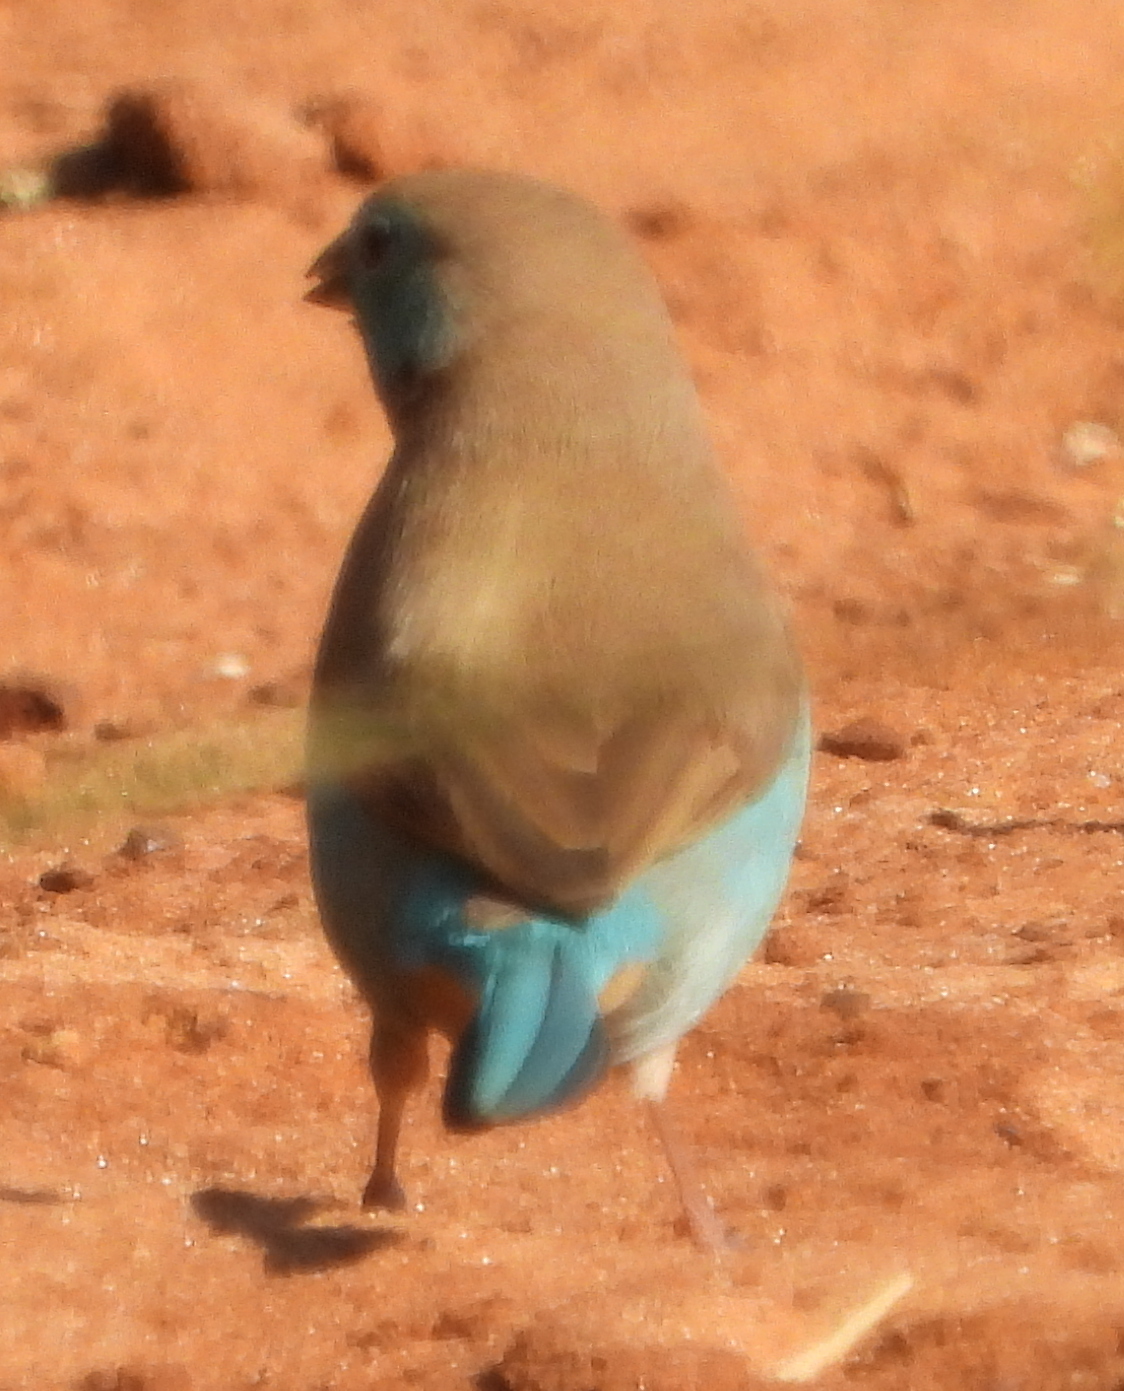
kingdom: Animalia
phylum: Chordata
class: Aves
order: Passeriformes
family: Estrildidae
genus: Uraeginthus
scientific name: Uraeginthus angolensis
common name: Blue waxbill
